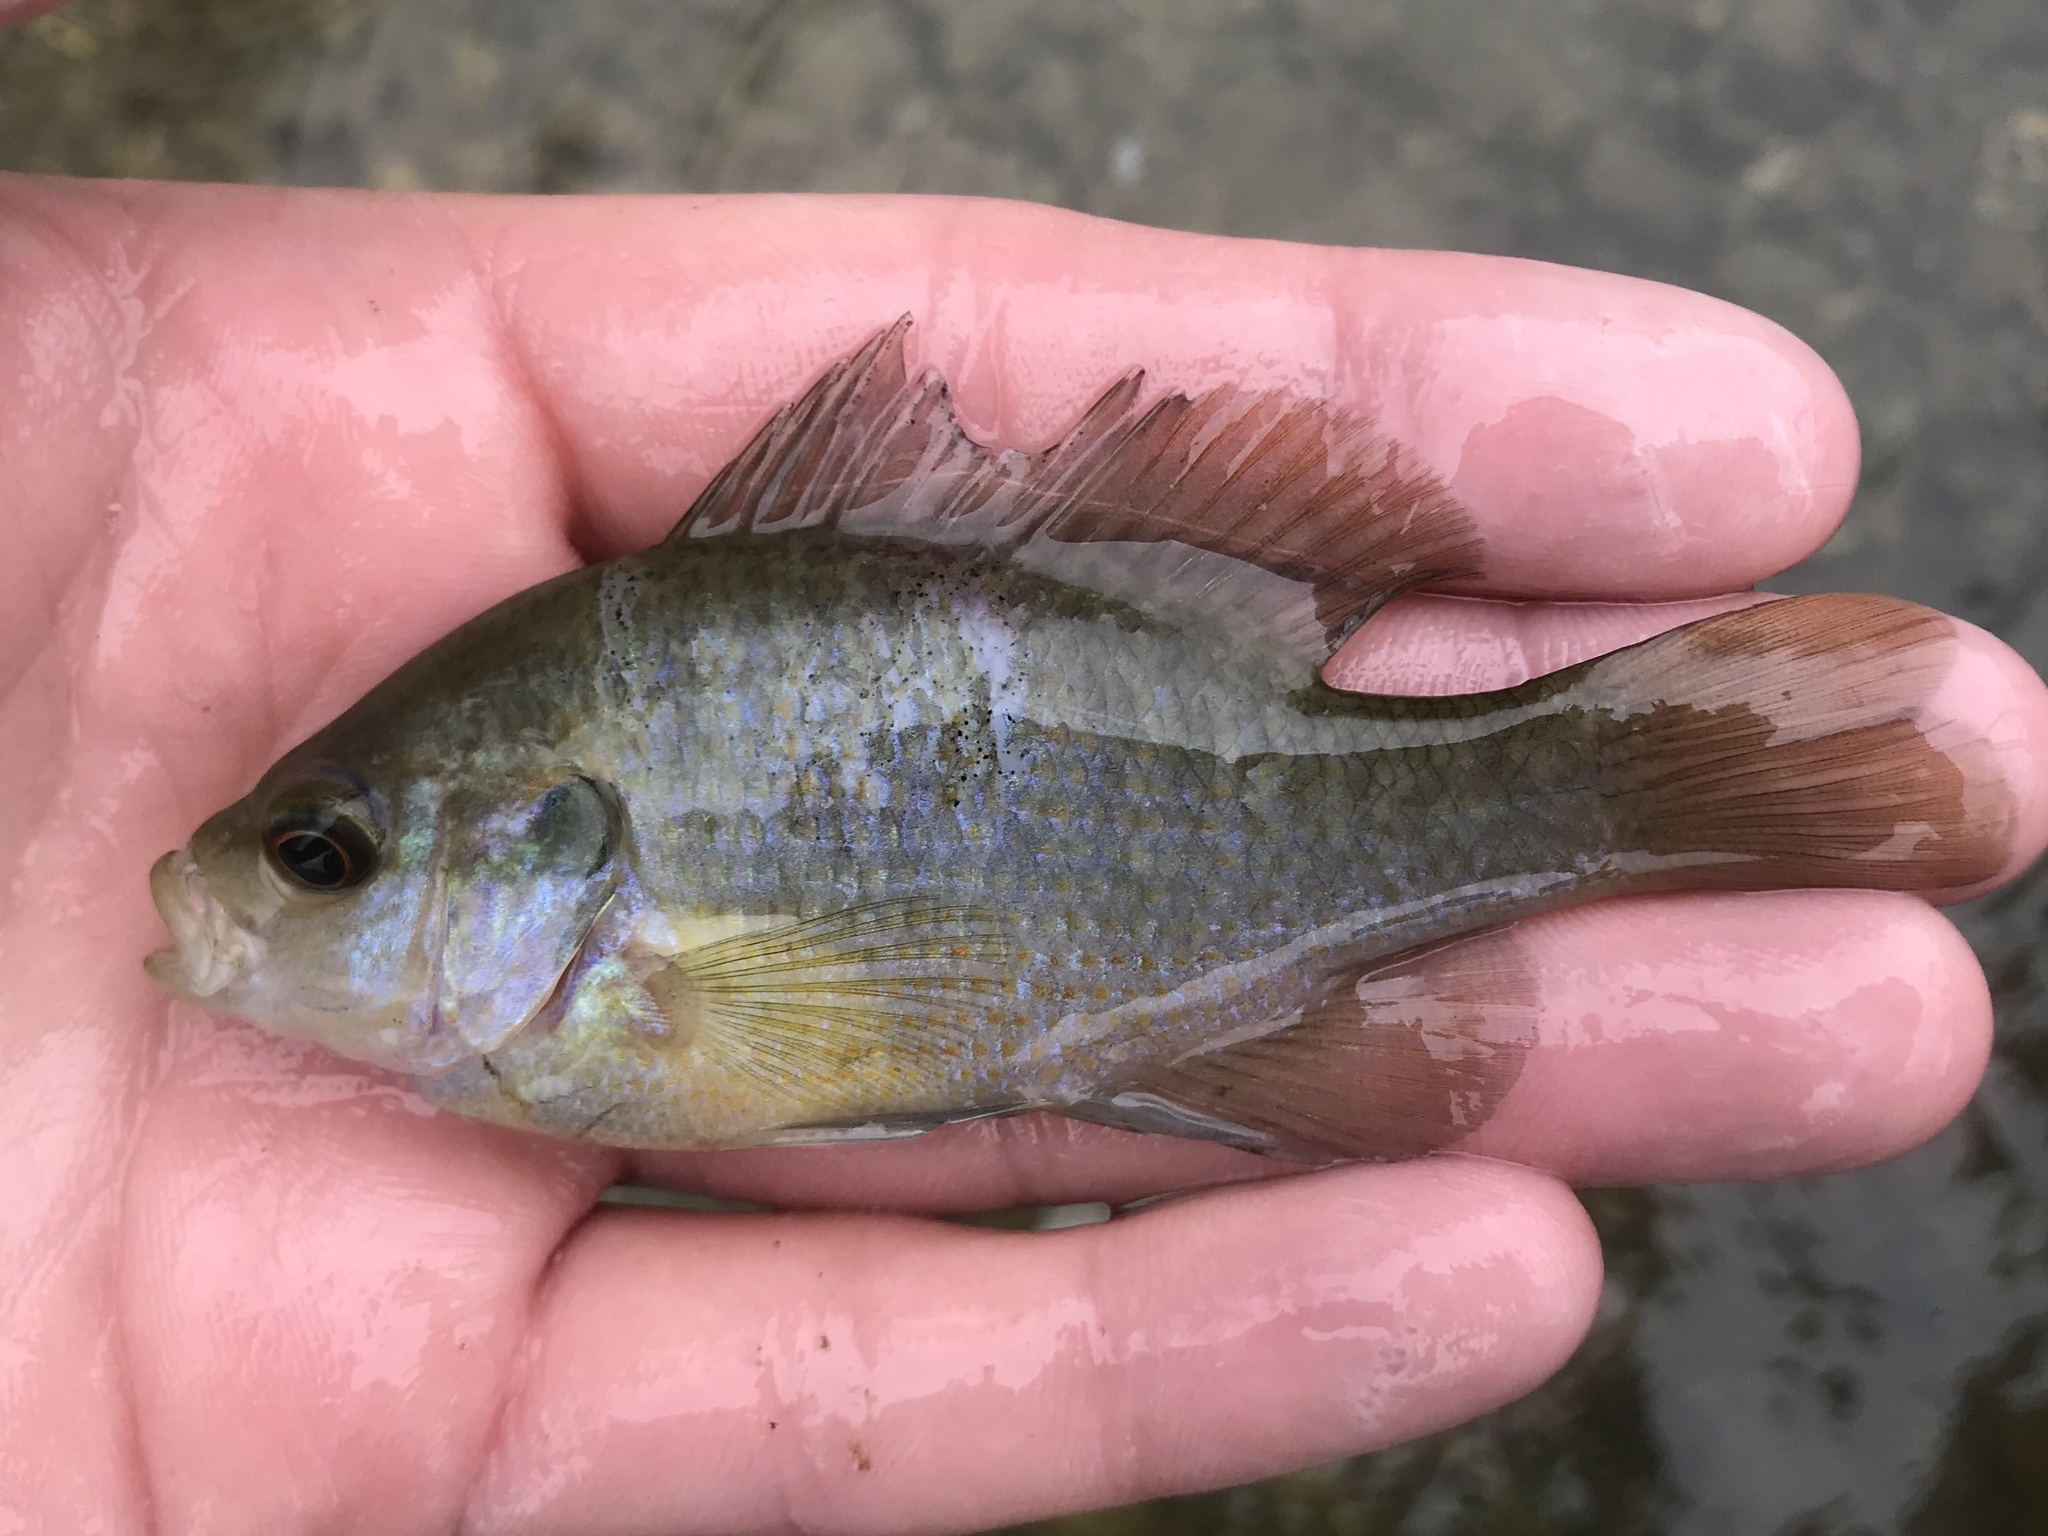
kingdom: Animalia
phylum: Chordata
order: Perciformes
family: Centrarchidae
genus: Lepomis
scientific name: Lepomis miniatus
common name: Redspotted sunfish
